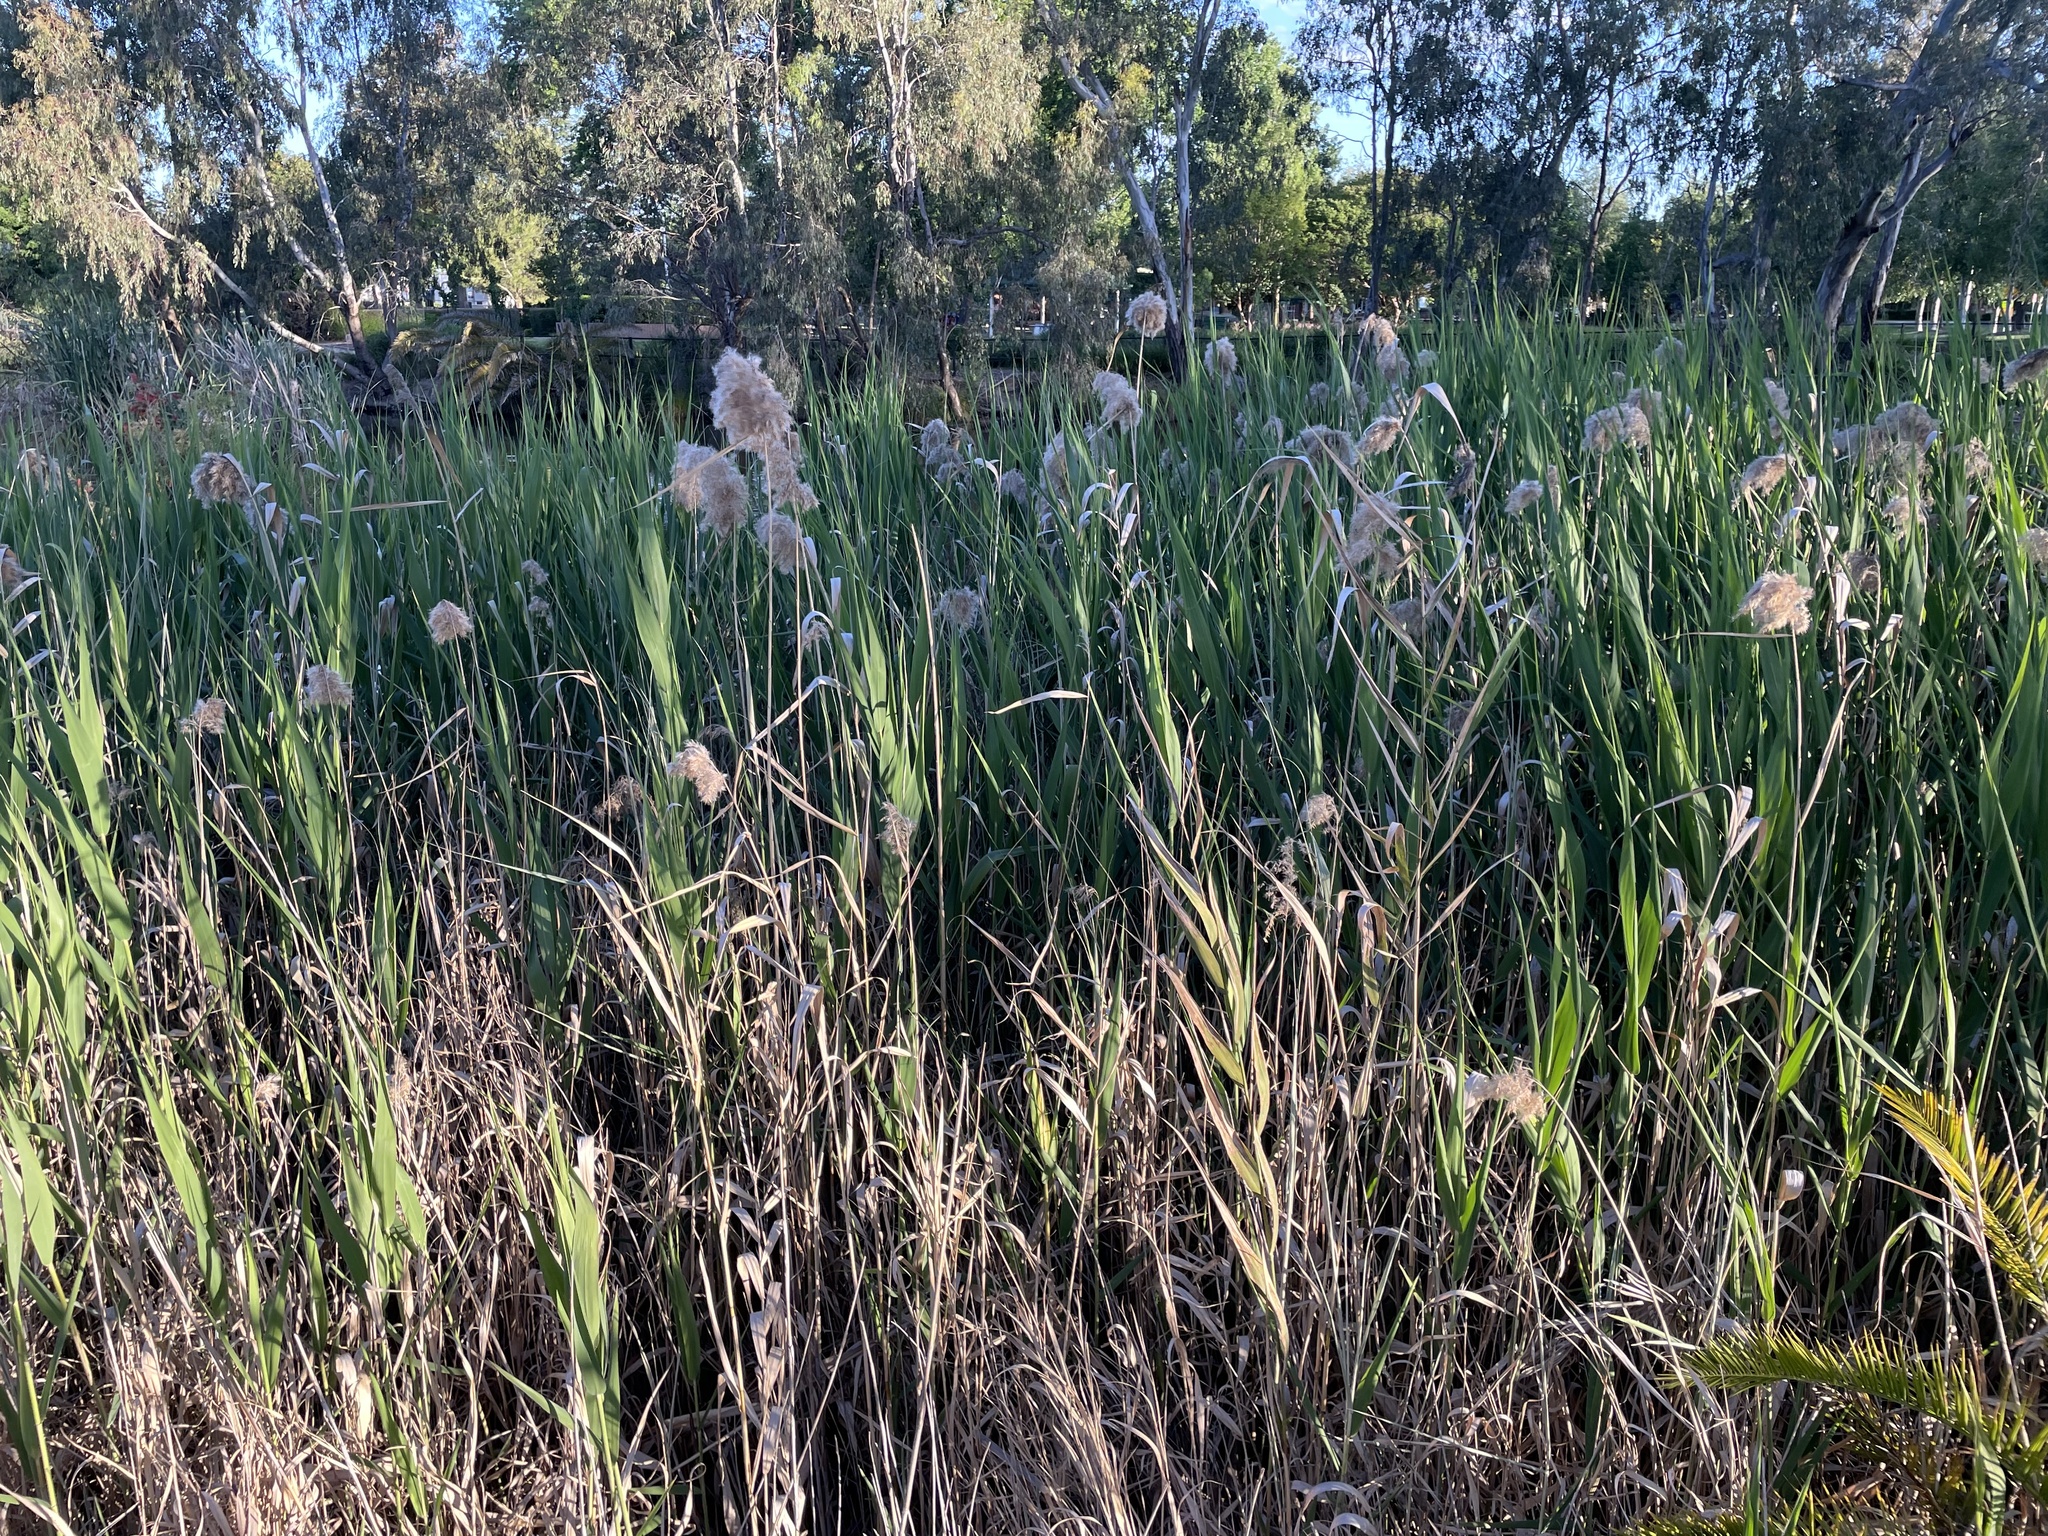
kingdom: Plantae
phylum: Tracheophyta
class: Liliopsida
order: Poales
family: Poaceae
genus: Phragmites
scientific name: Phragmites australis
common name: Common reed
